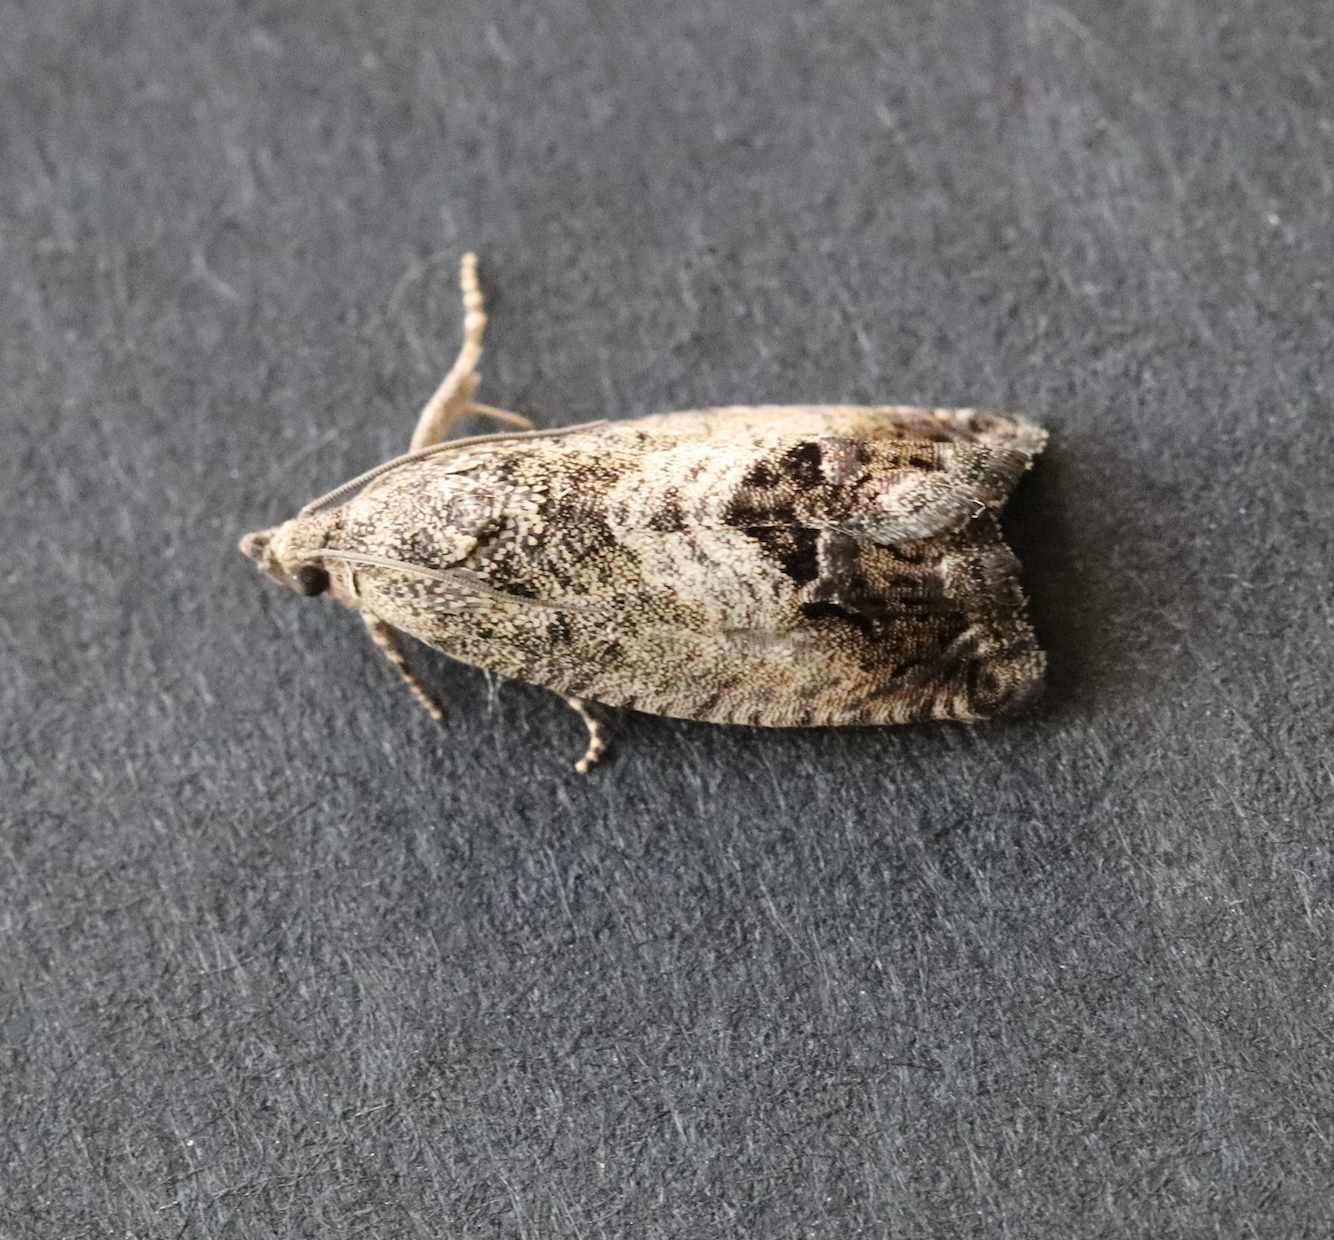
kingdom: Animalia
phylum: Arthropoda
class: Insecta
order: Lepidoptera
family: Tortricidae
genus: Cydia
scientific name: Cydia splendana
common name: De: kastanienwickler, eichenwickler es: oruga de la castaña fr: carpocapse des châtaignes it: cidia o tortrice tardiva delle castagne pt: bichado das castanhas gb: acorn moth, chestnut fruit tortrix
